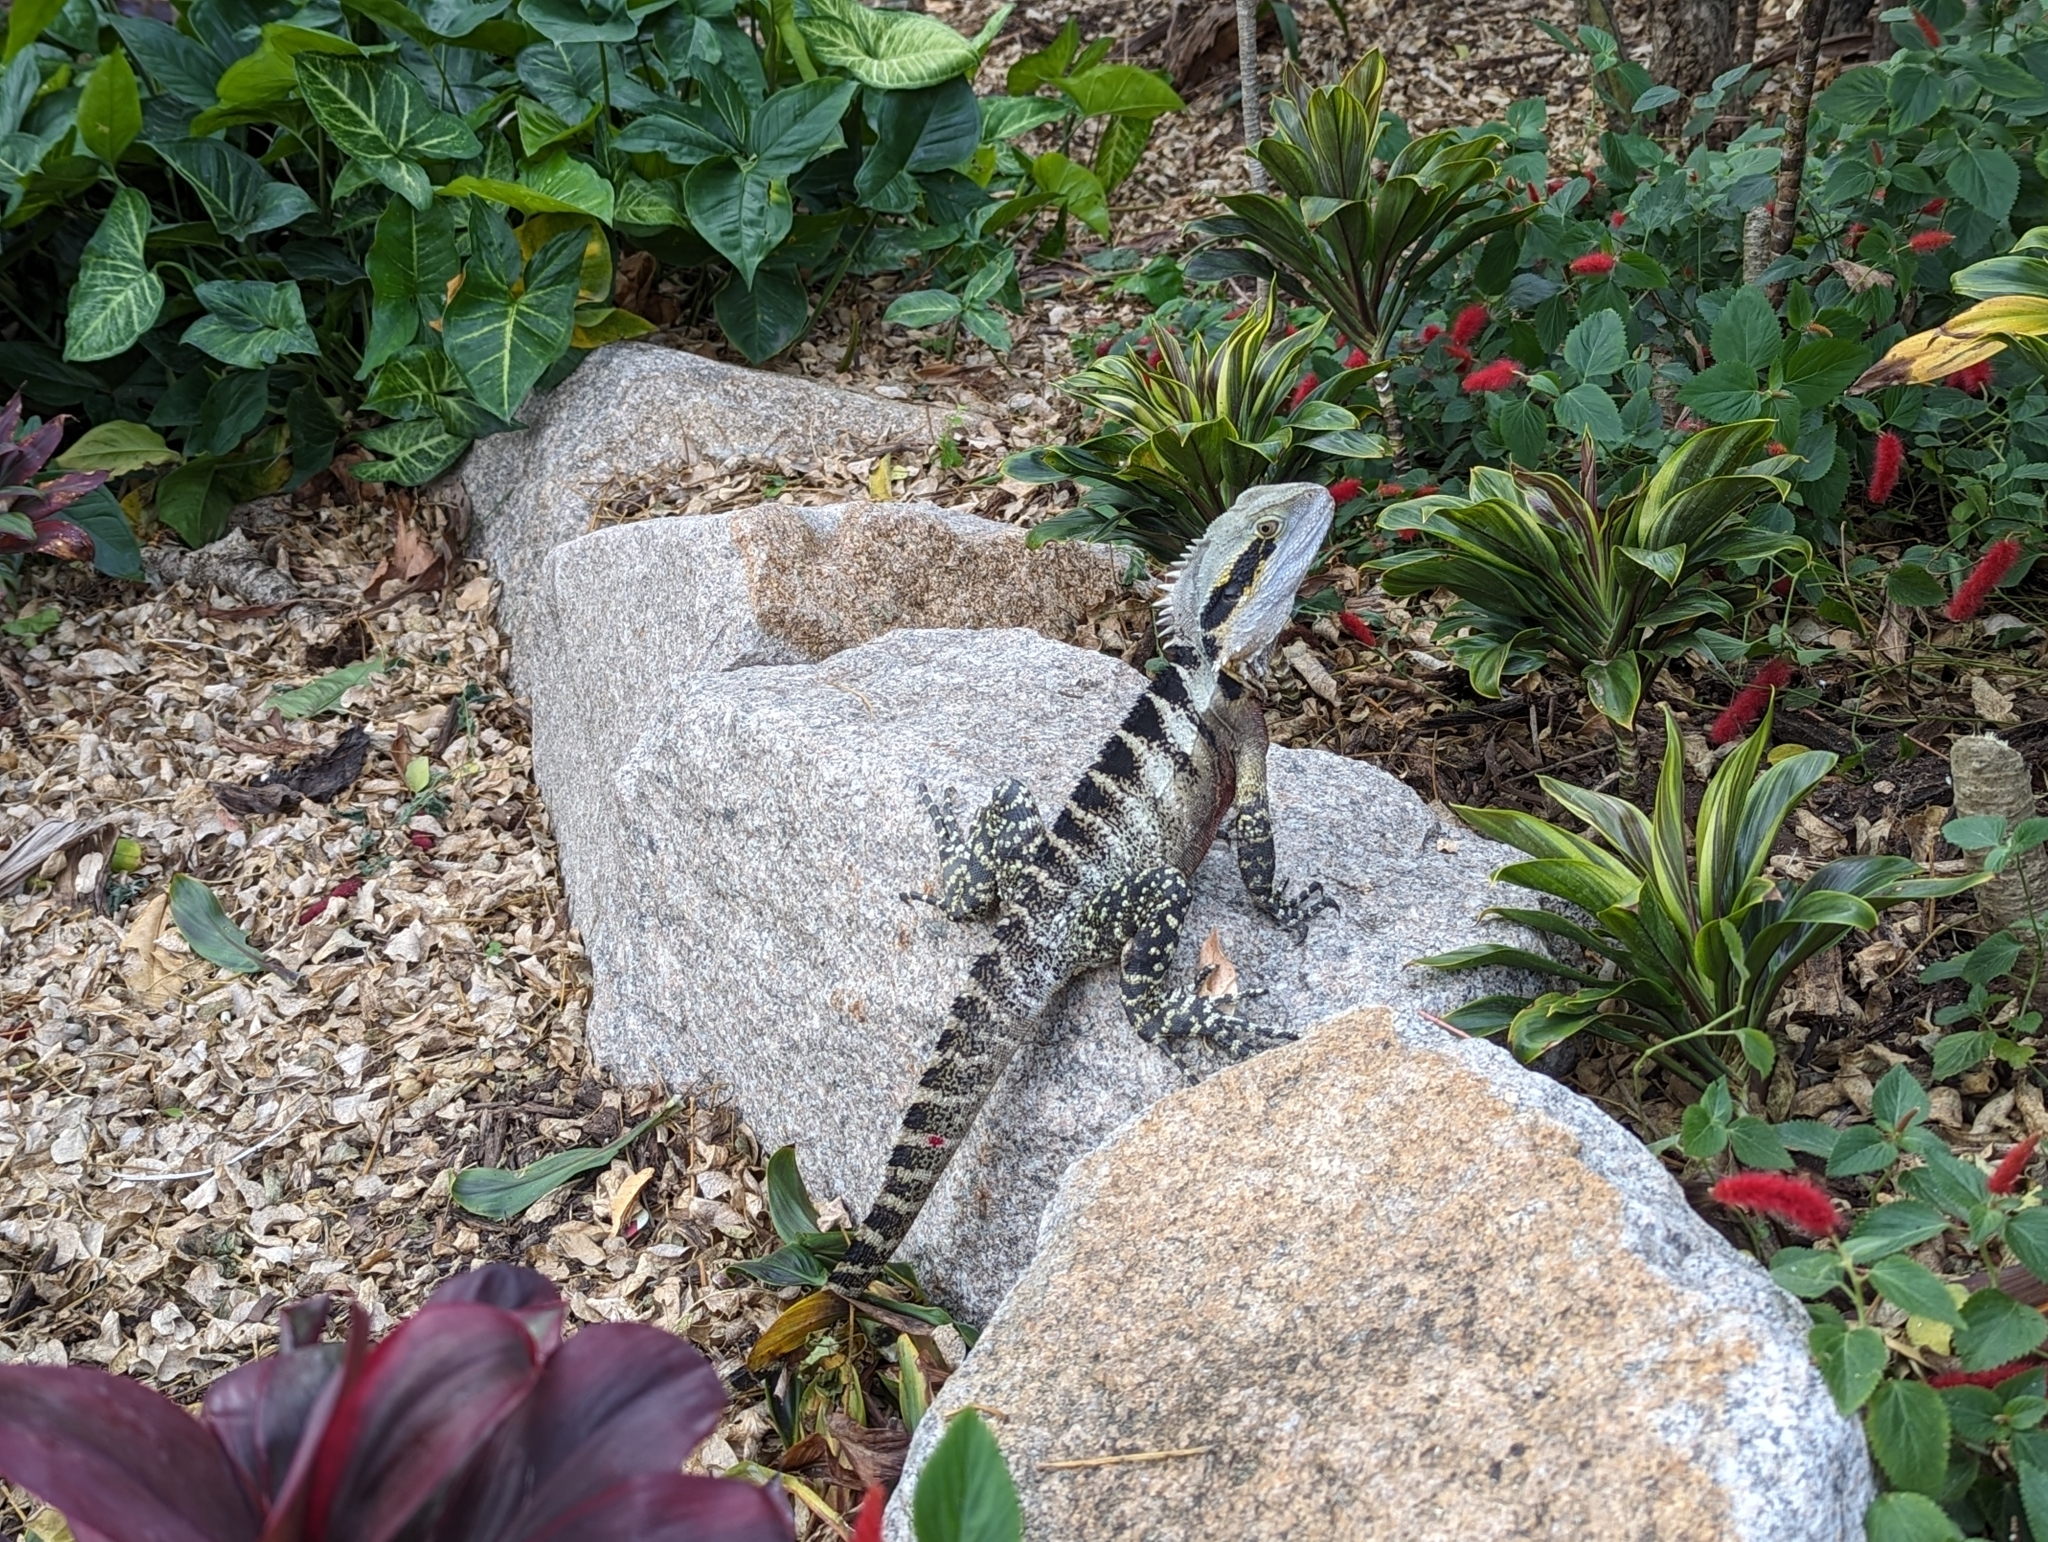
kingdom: Animalia
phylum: Chordata
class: Squamata
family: Agamidae
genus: Intellagama
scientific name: Intellagama lesueurii
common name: Eastern water dragon
